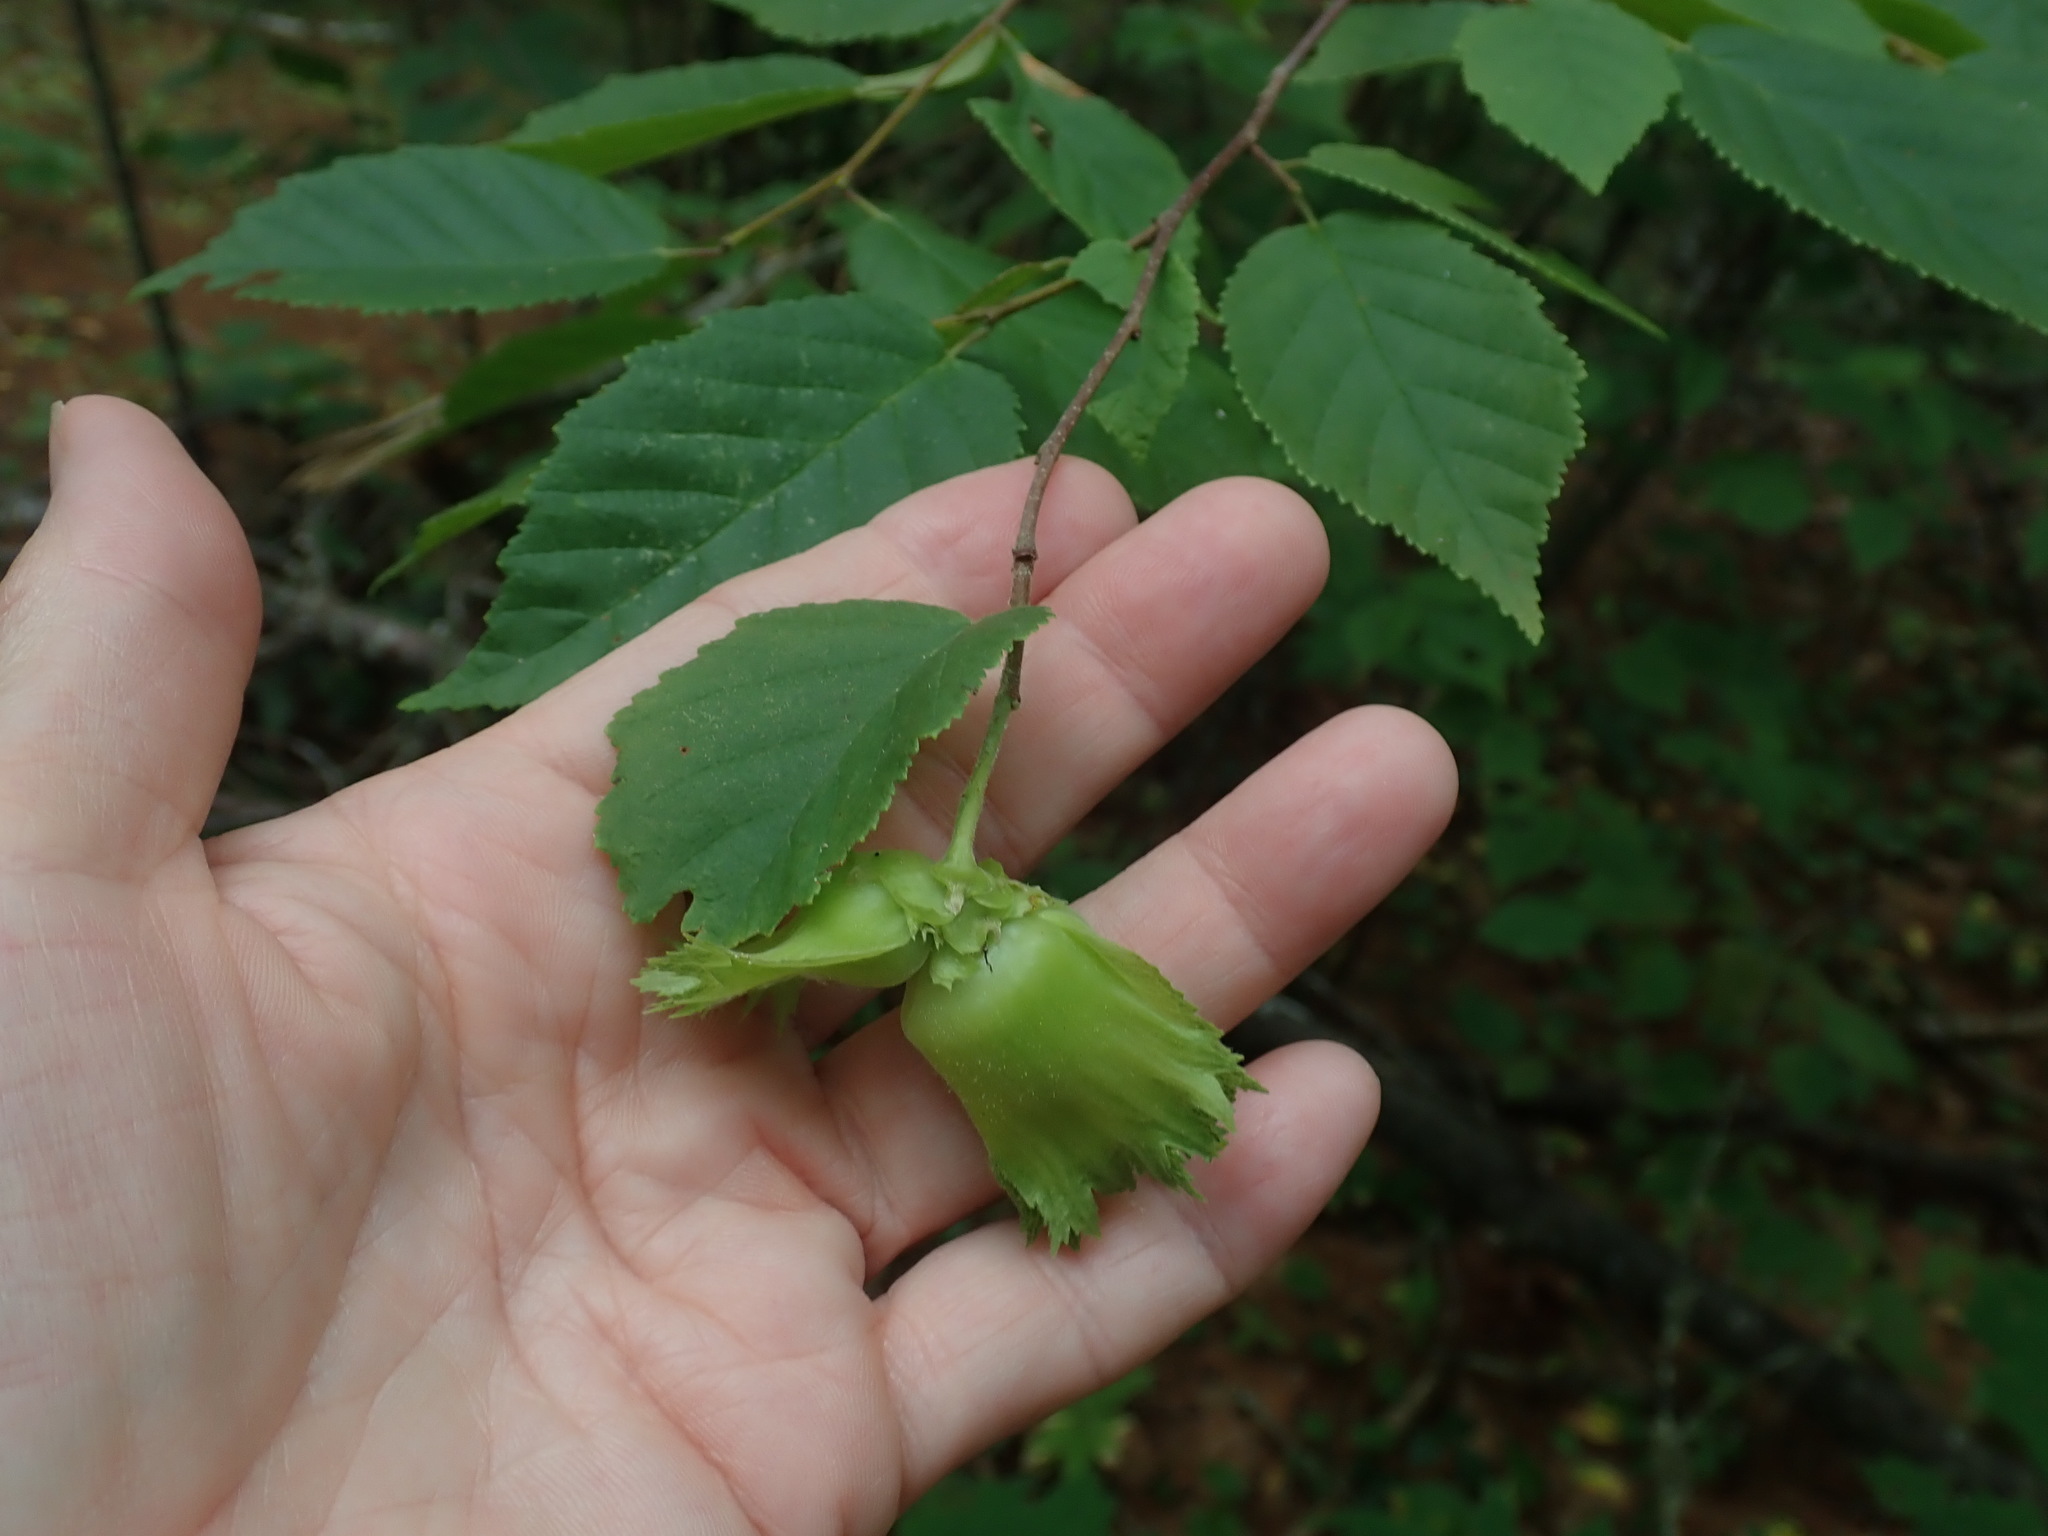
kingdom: Plantae
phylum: Tracheophyta
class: Magnoliopsida
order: Fagales
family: Betulaceae
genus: Corylus
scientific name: Corylus americana
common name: American hazel
